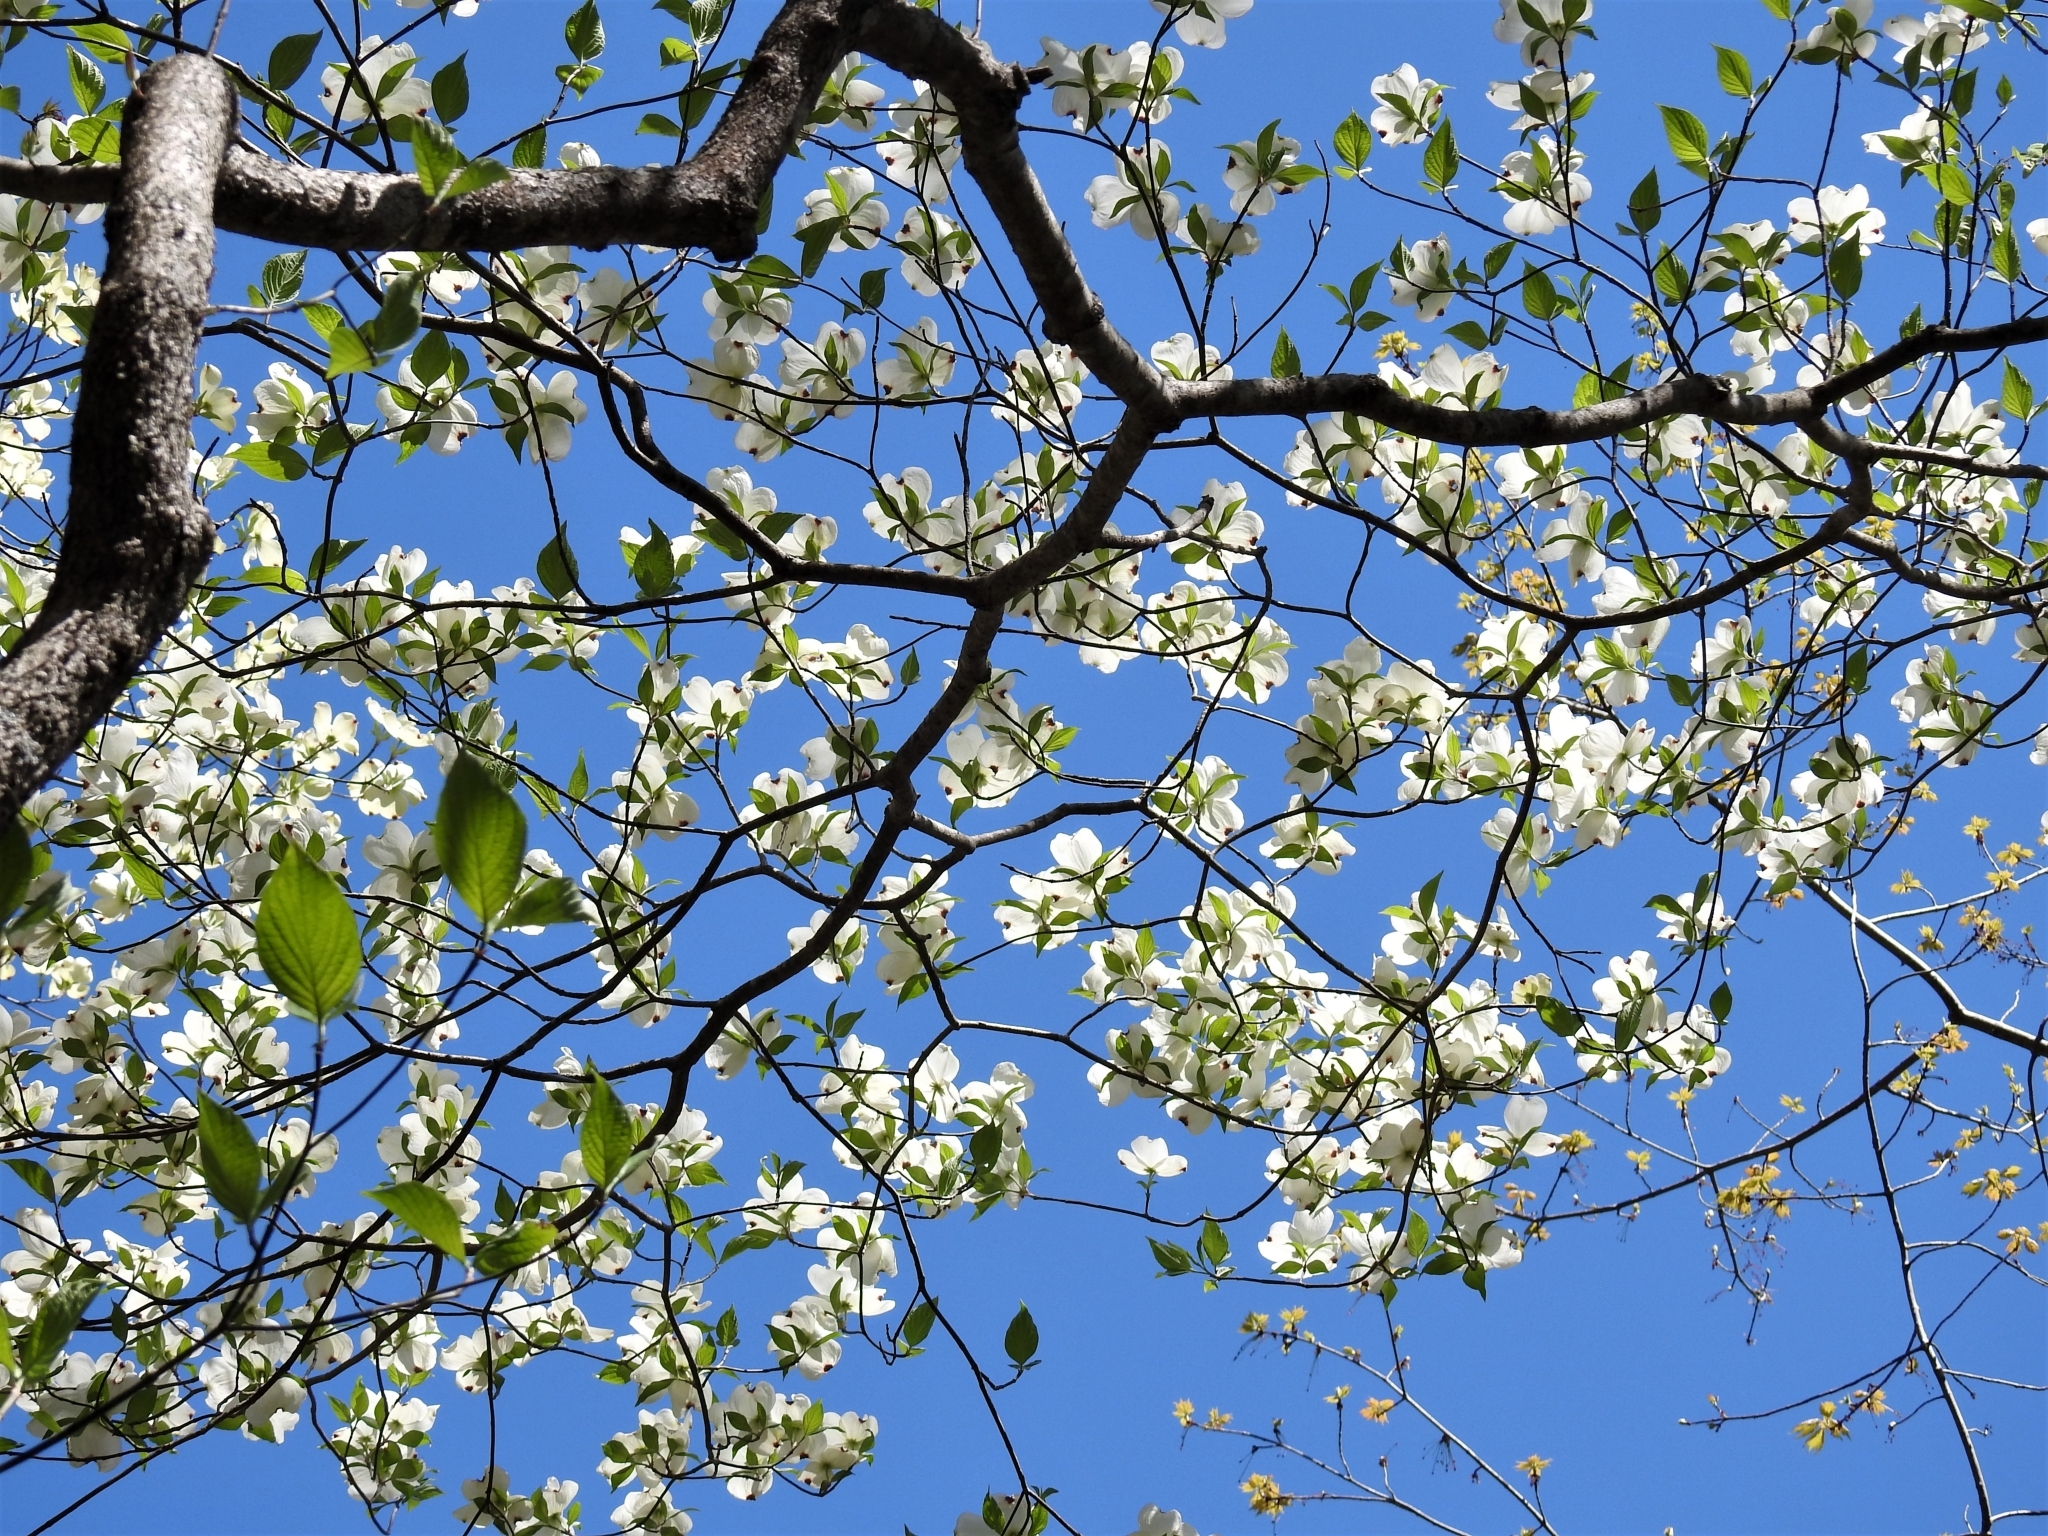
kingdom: Plantae
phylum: Tracheophyta
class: Magnoliopsida
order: Cornales
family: Cornaceae
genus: Cornus
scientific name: Cornus florida
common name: Flowering dogwood
